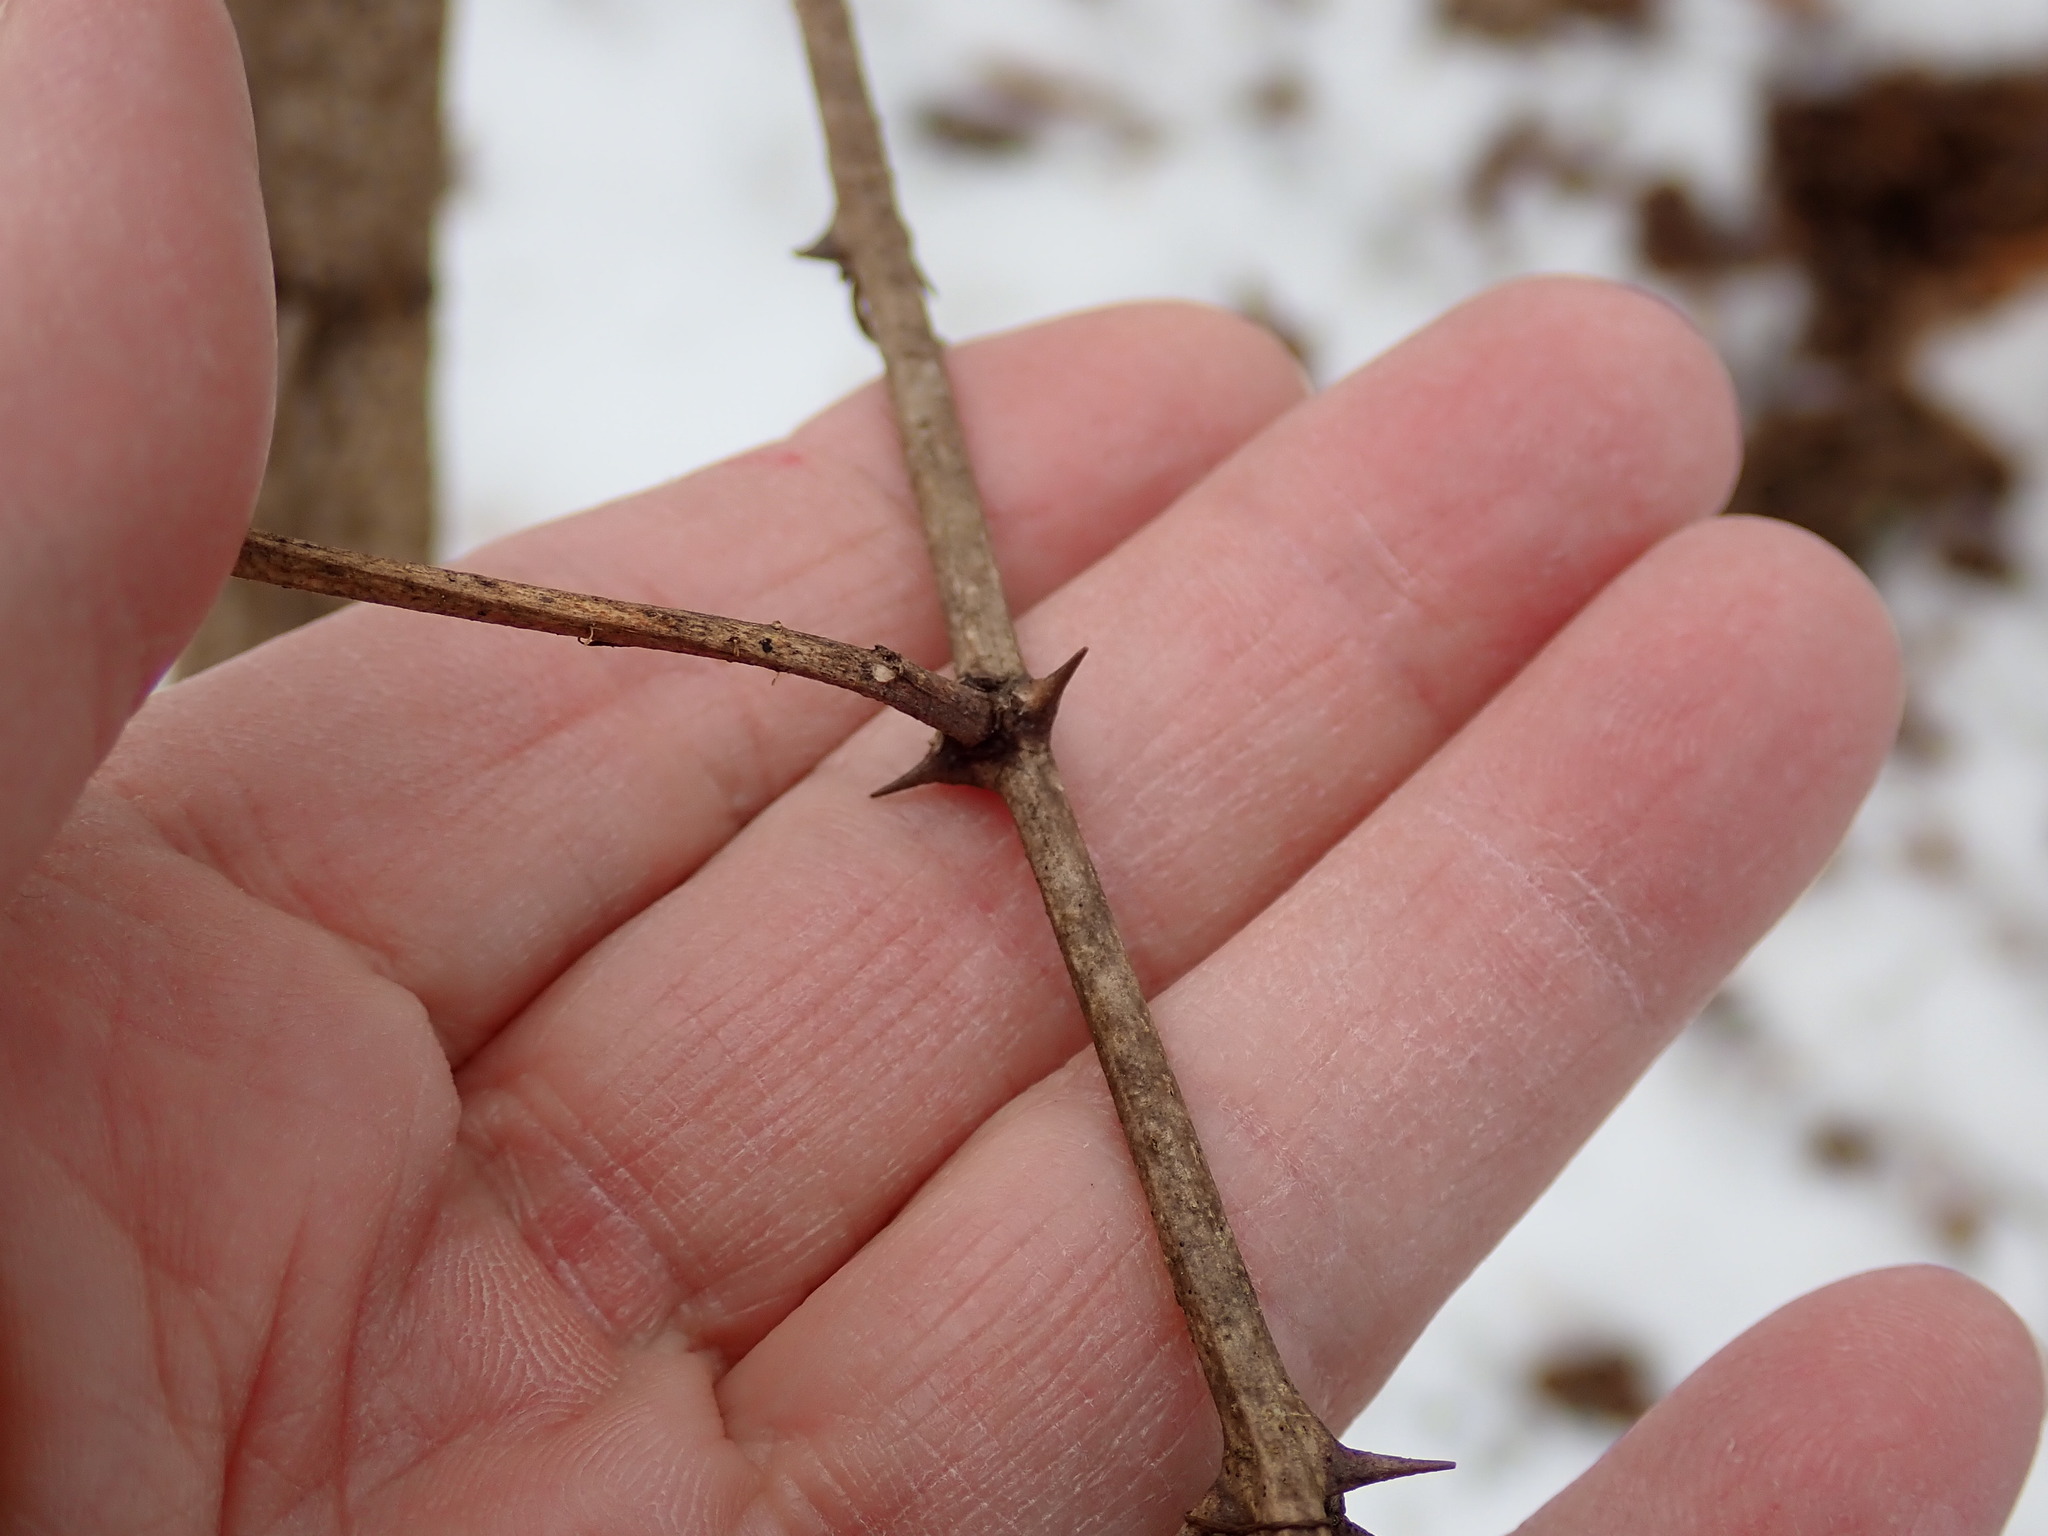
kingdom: Plantae
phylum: Tracheophyta
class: Magnoliopsida
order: Fabales
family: Fabaceae
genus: Robinia
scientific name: Robinia pseudoacacia
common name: Black locust
